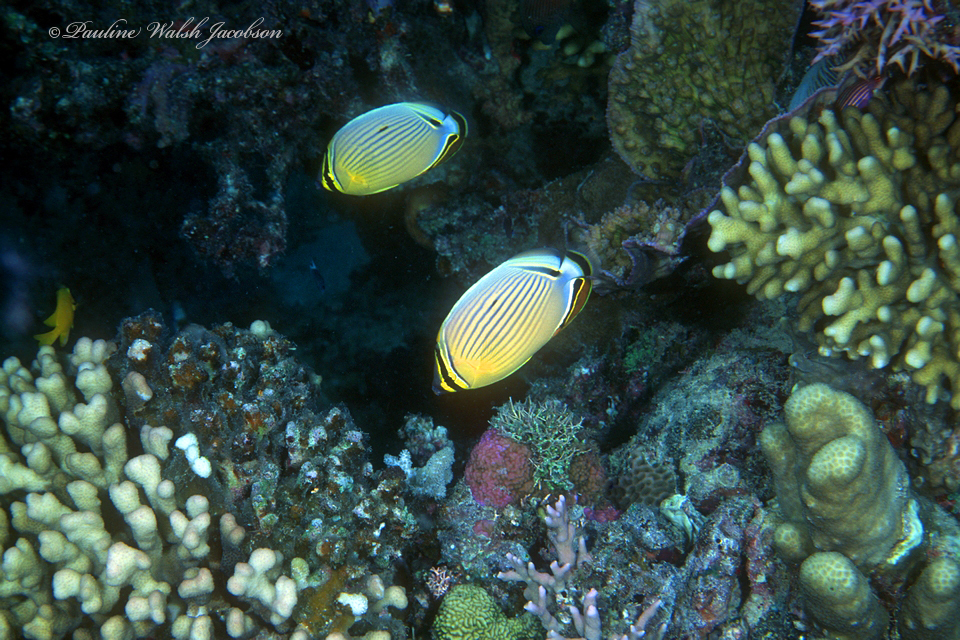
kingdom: Animalia
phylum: Chordata
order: Perciformes
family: Chaetodontidae
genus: Chaetodon
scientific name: Chaetodon lunulatus
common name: Redfin butterflyfish
